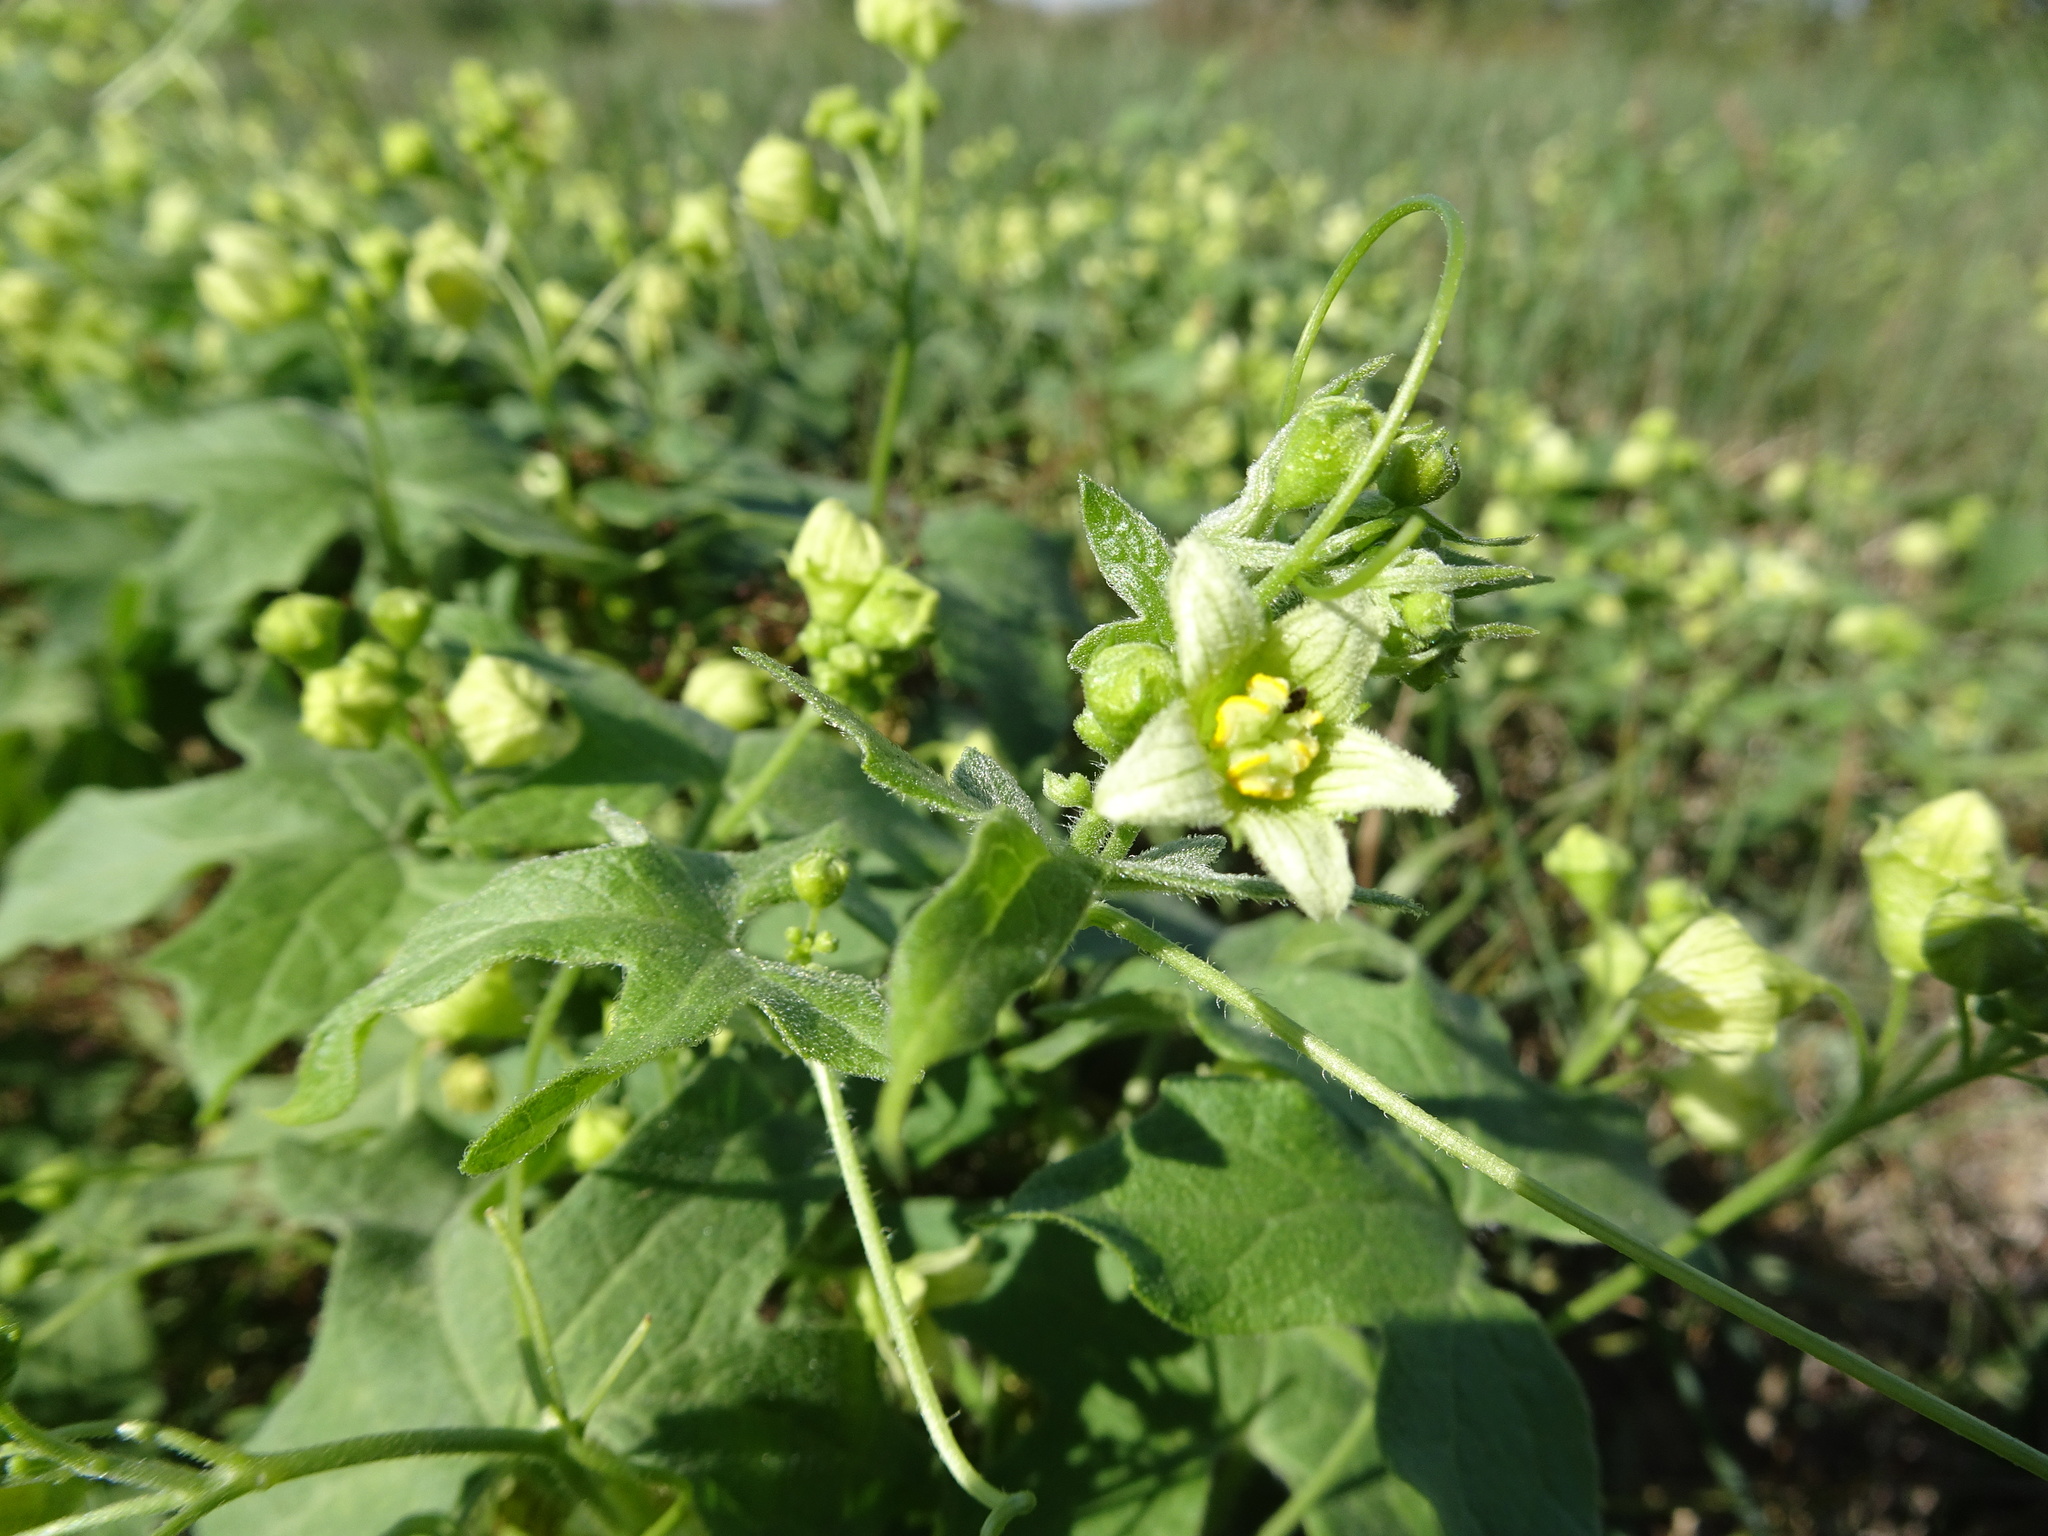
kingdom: Plantae
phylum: Tracheophyta
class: Magnoliopsida
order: Cucurbitales
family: Cucurbitaceae
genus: Bryonia
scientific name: Bryonia dioica
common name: White bryony
